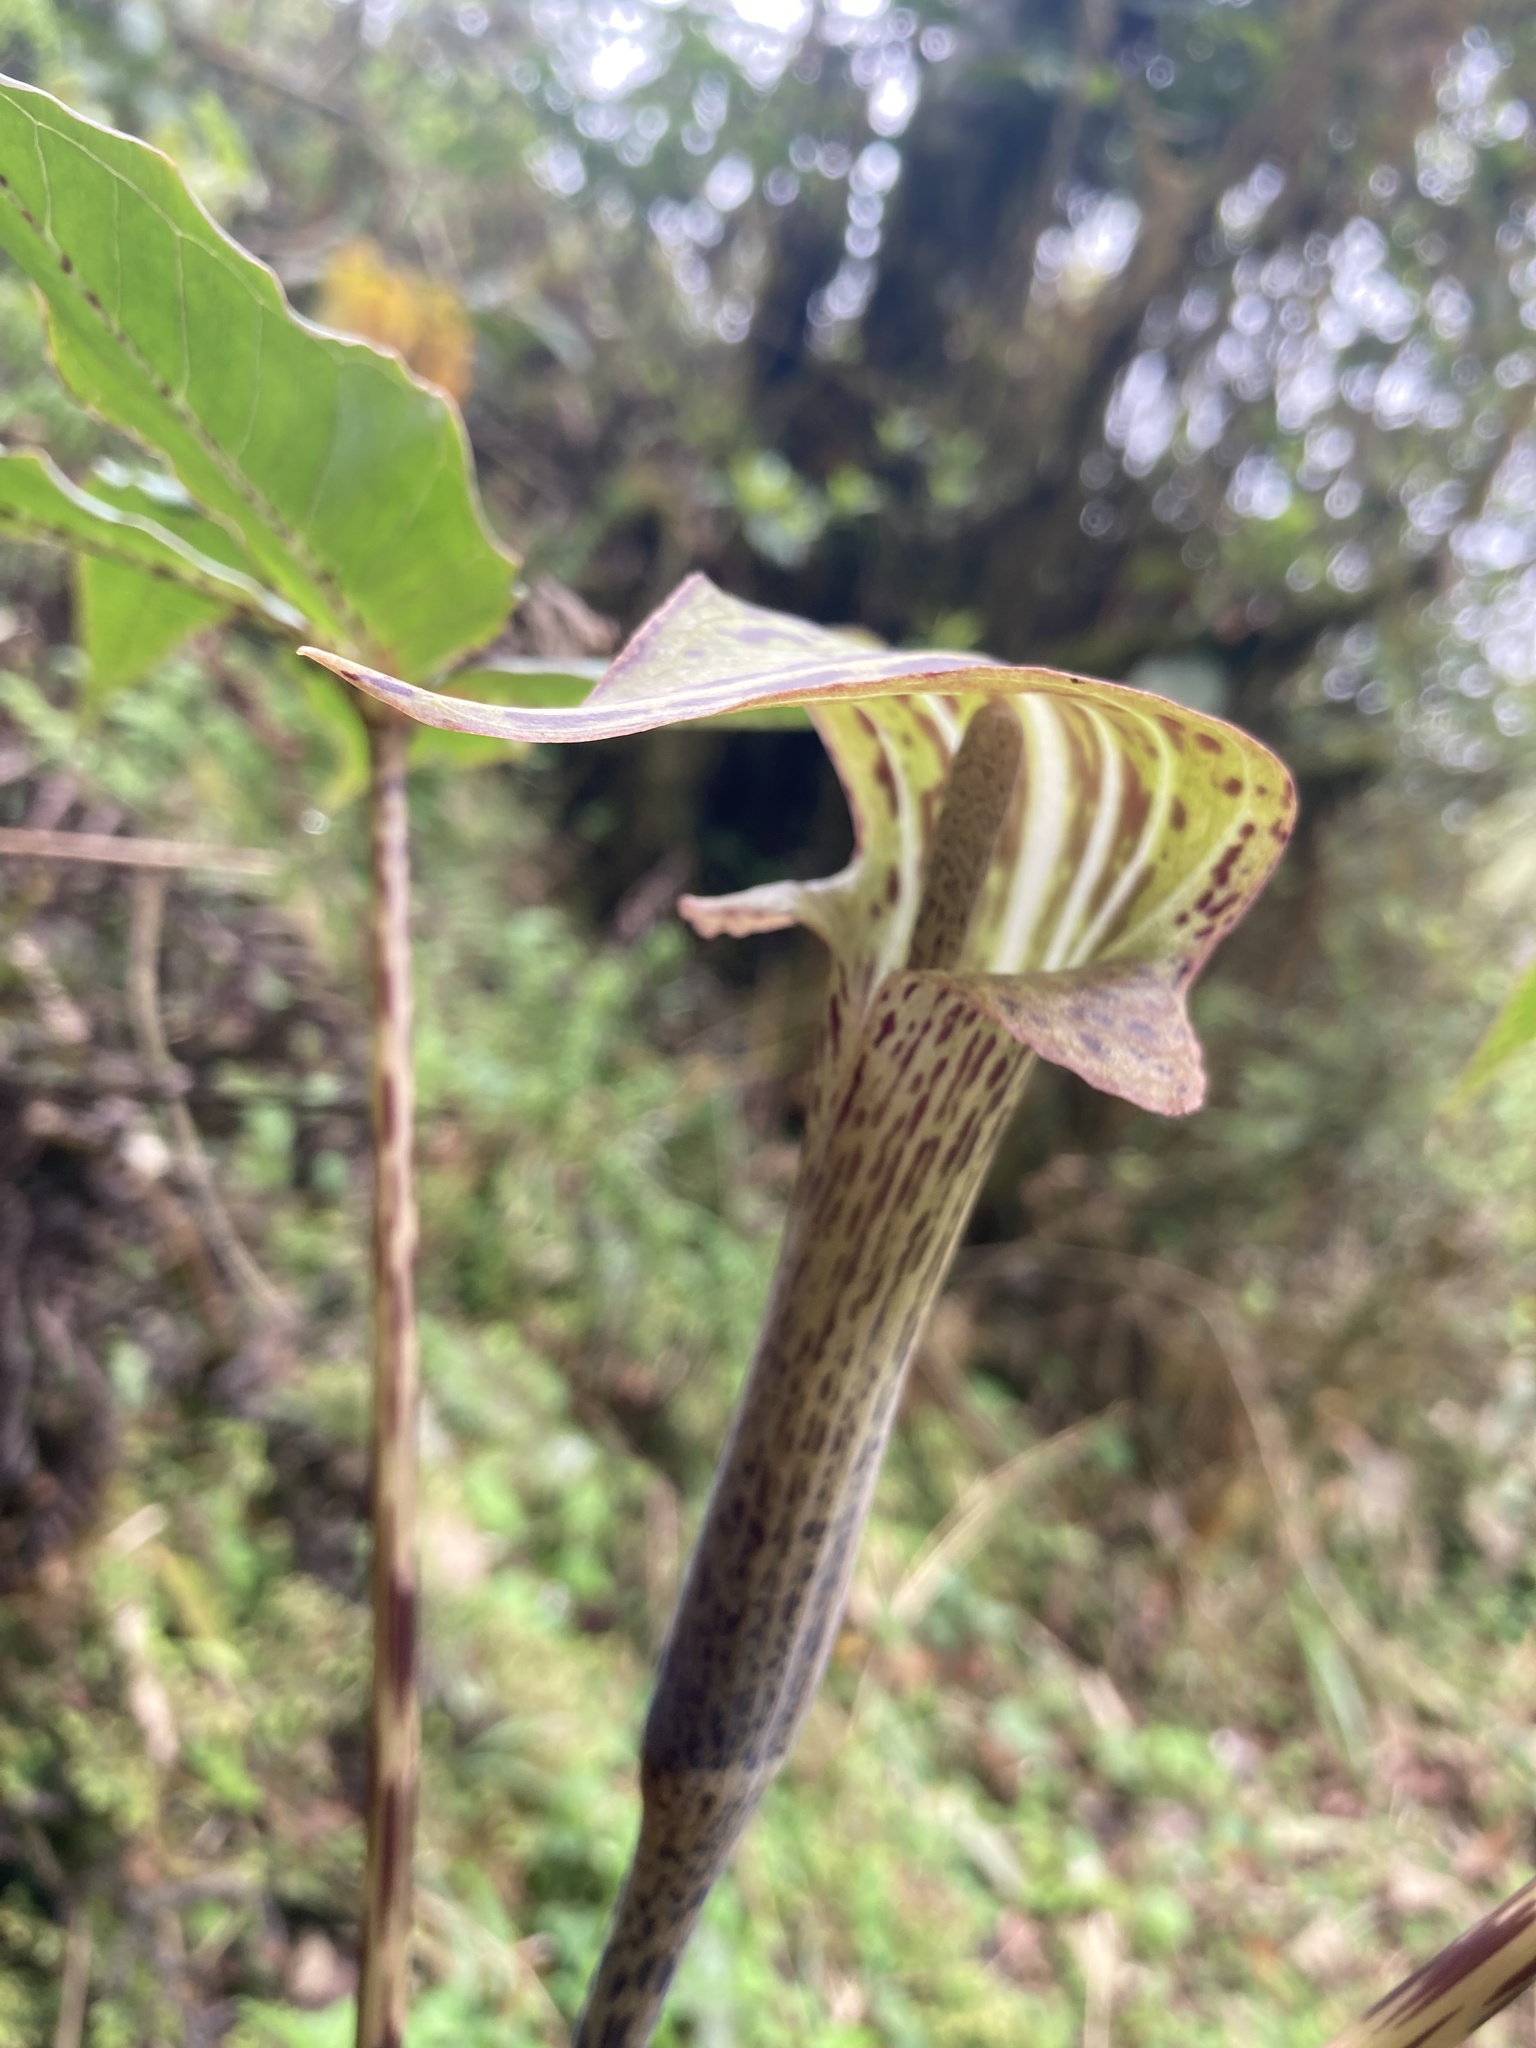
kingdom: Plantae
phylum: Tracheophyta
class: Liliopsida
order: Alismatales
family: Araceae
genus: Arisaema
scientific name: Arisaema nepenthoides
